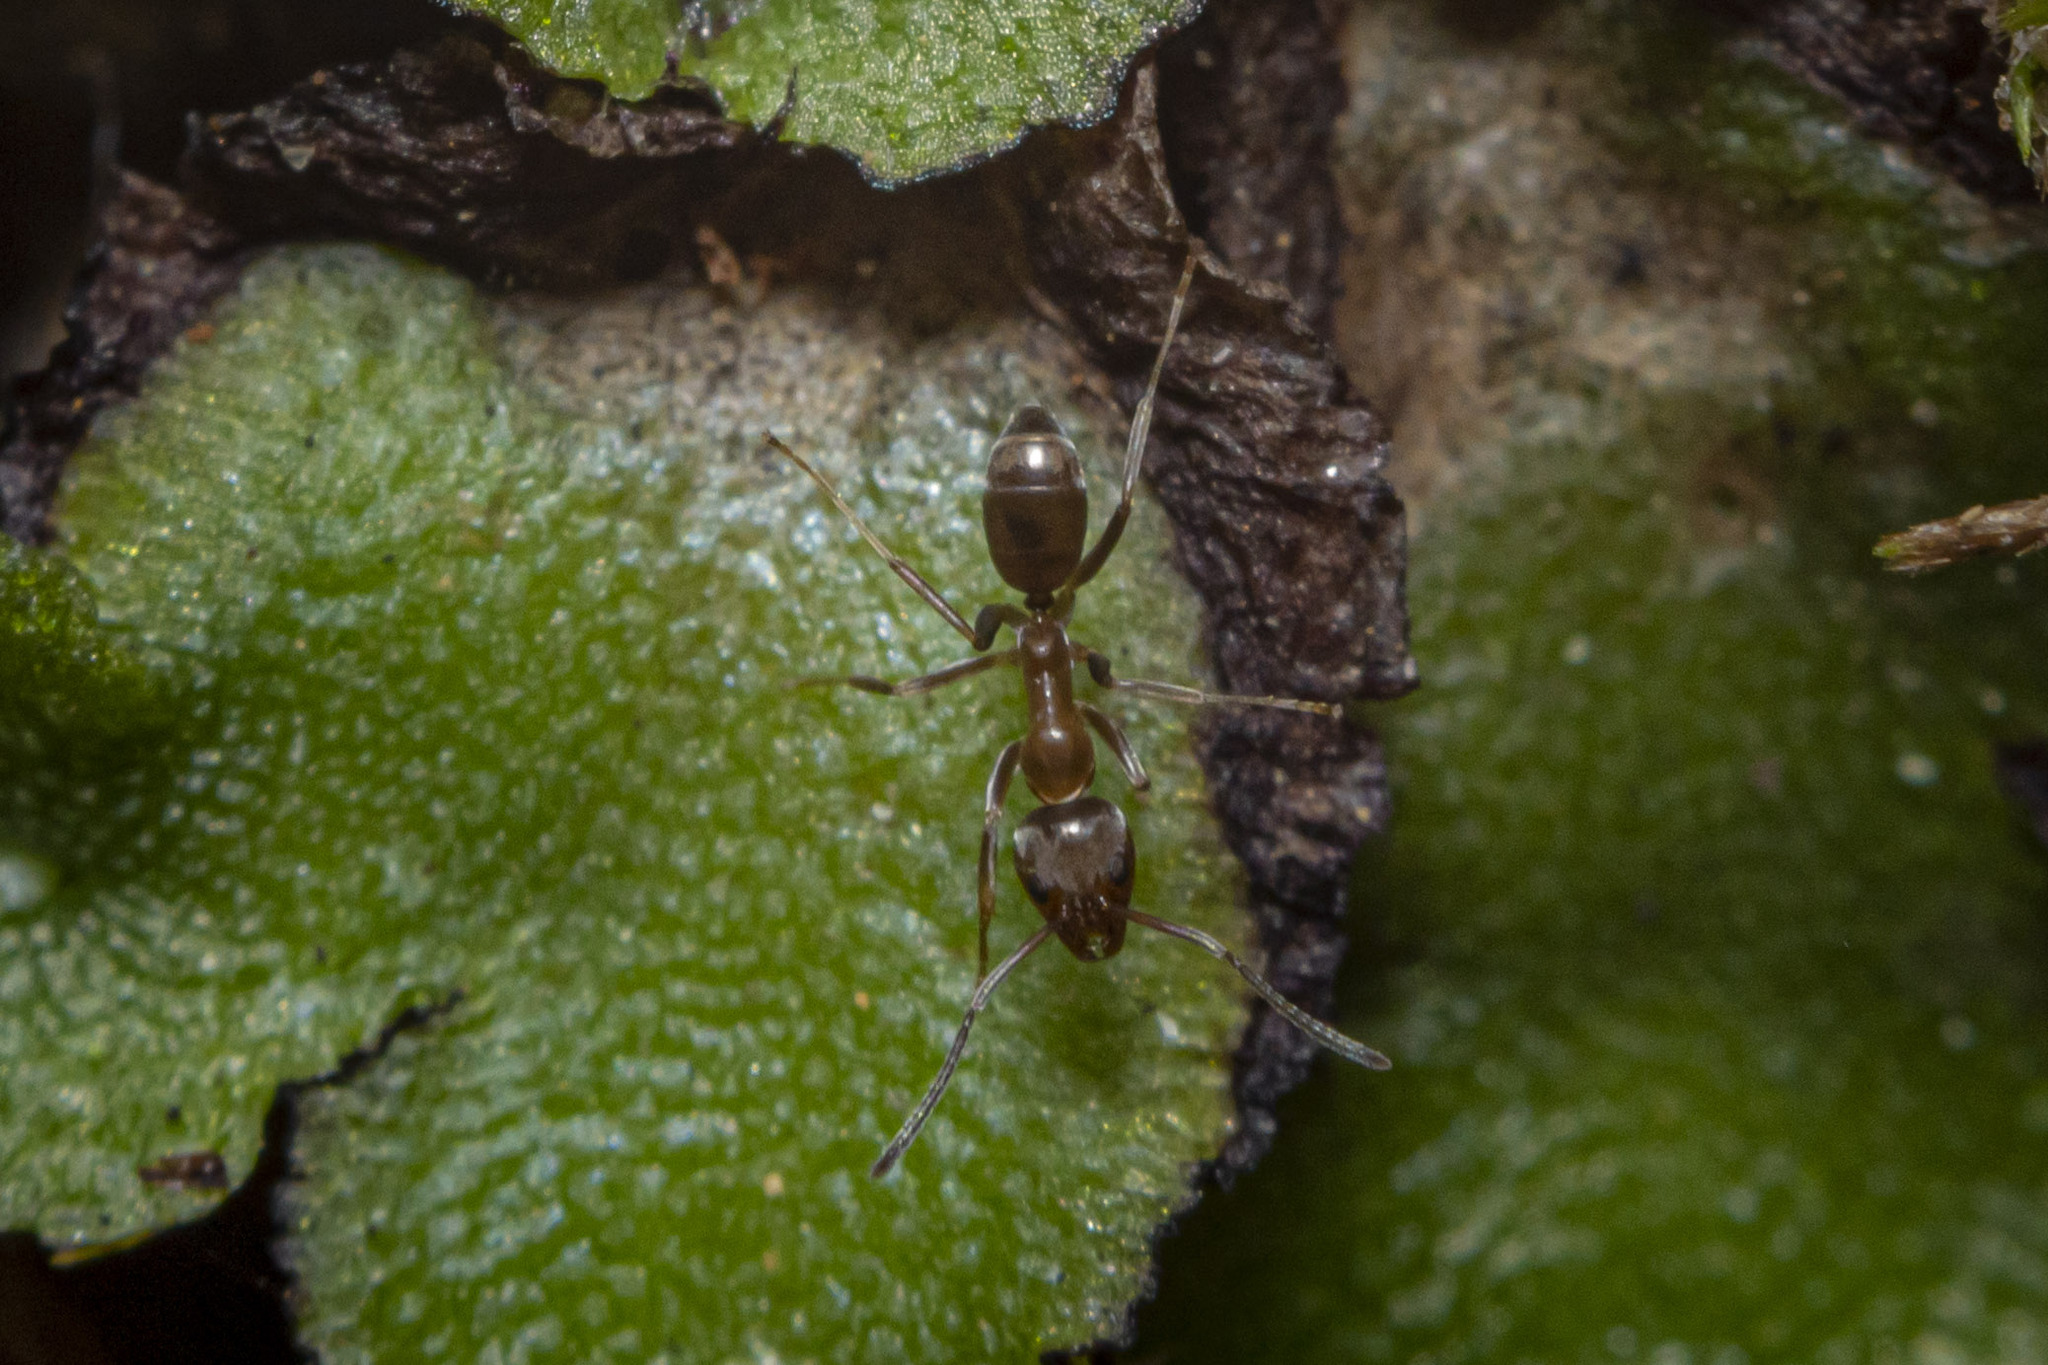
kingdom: Animalia
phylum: Arthropoda
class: Insecta
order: Hymenoptera
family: Formicidae
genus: Linepithema
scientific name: Linepithema humile
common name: Argentine ant
